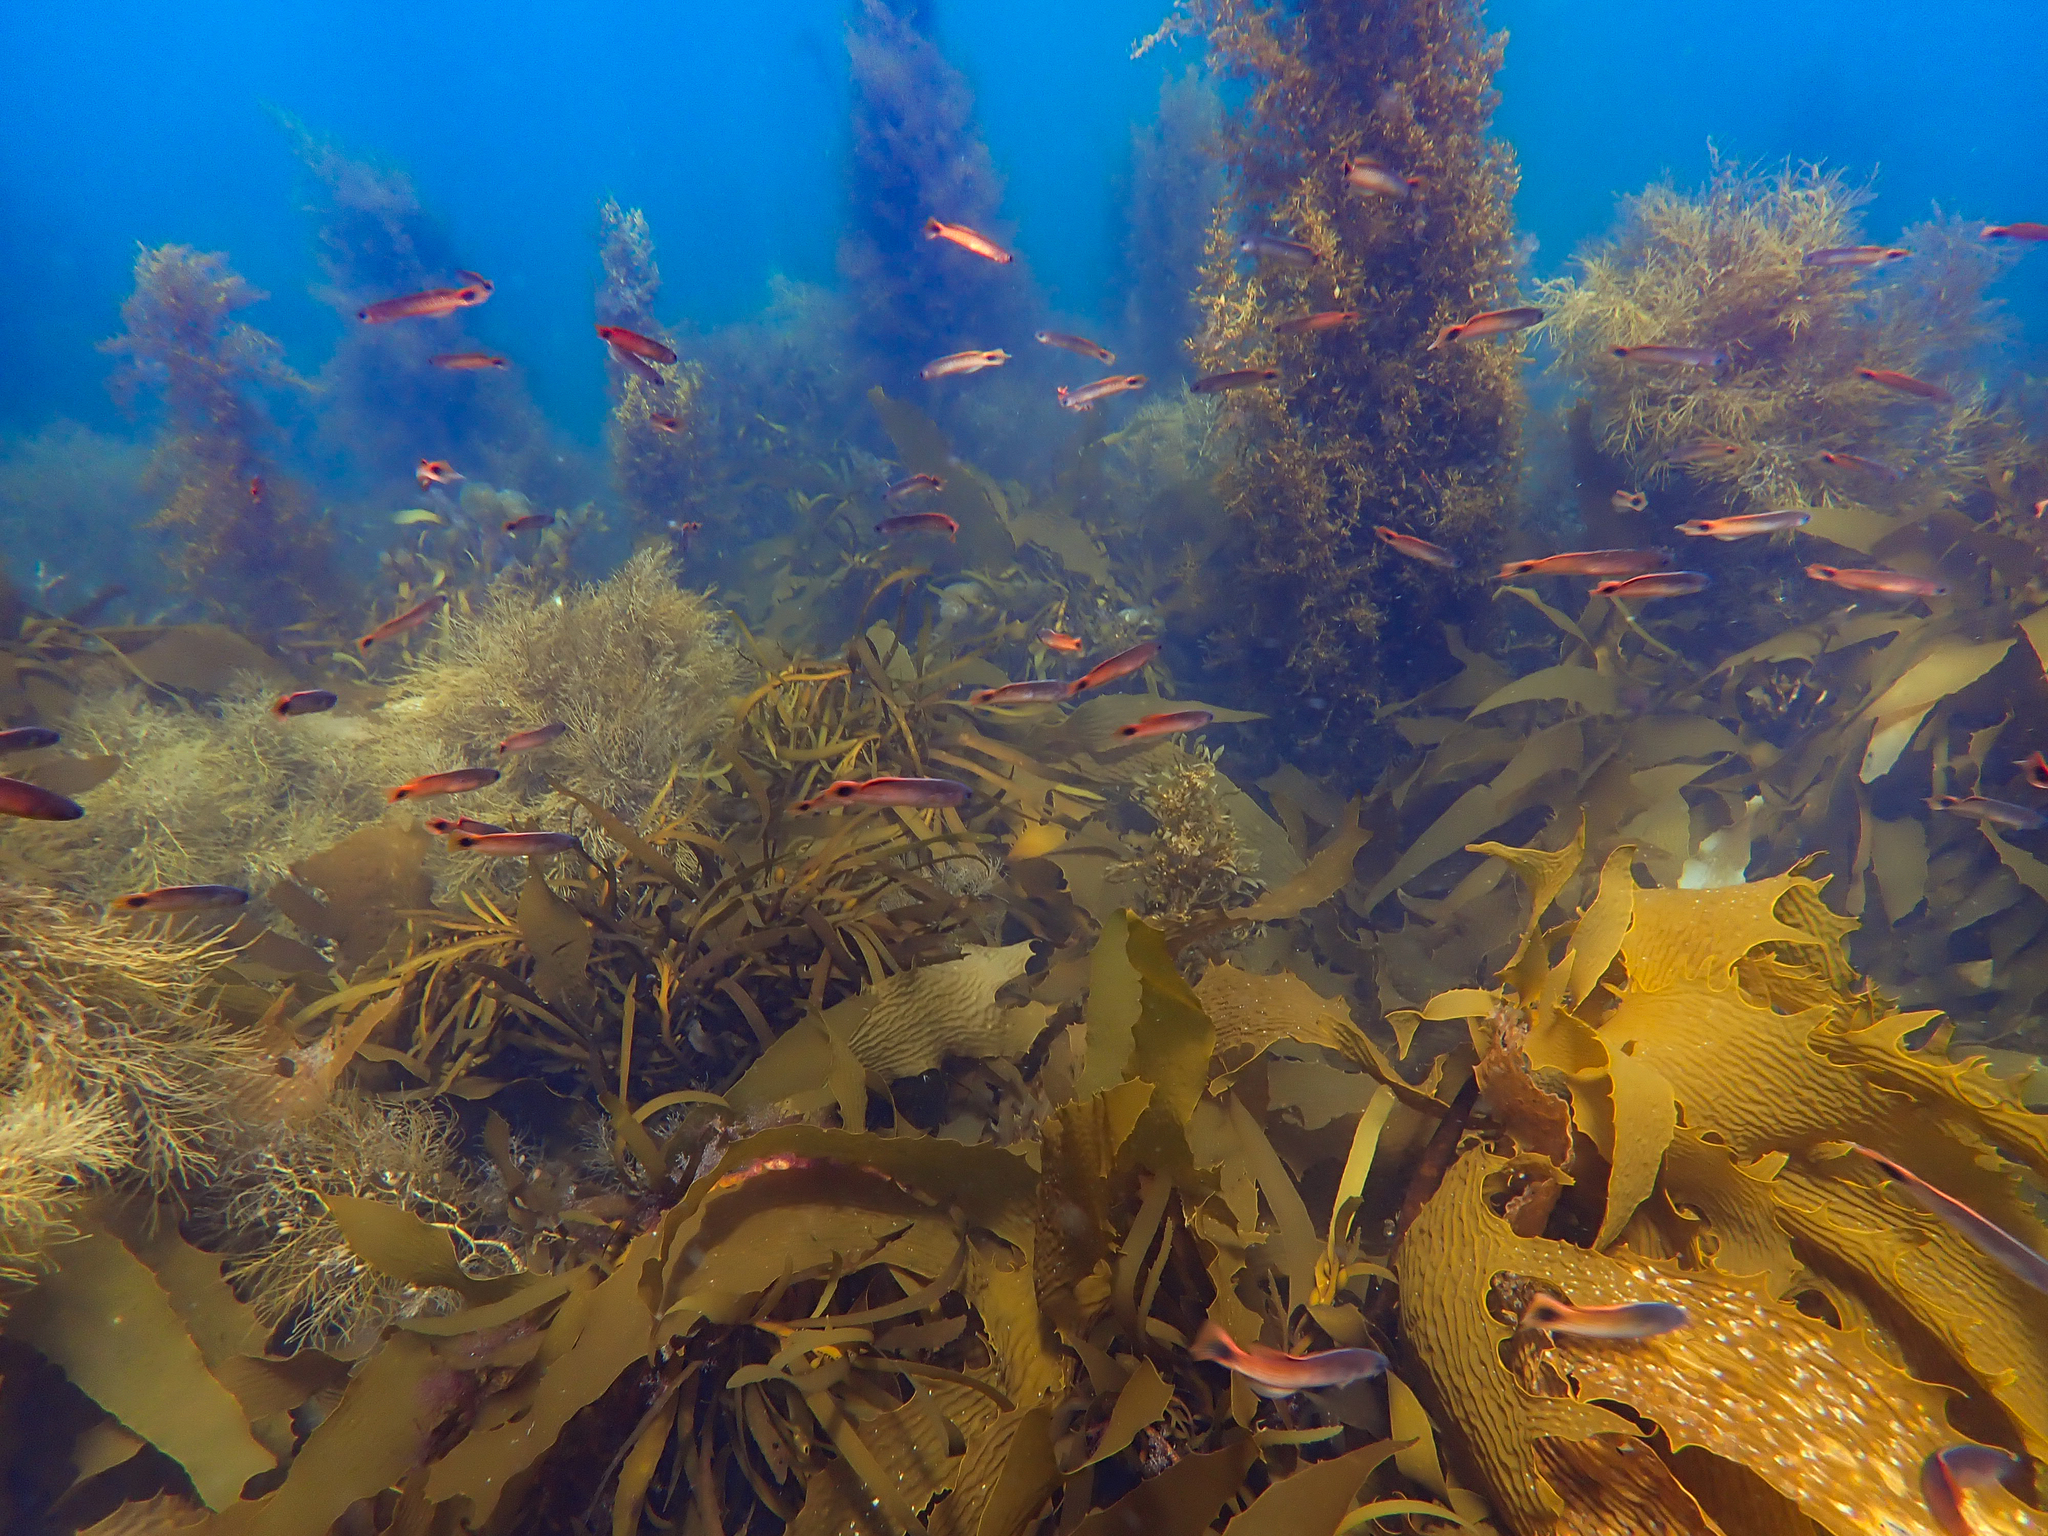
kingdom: Animalia
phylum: Chordata
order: Perciformes
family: Plesiopidae
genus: Trachinops
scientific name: Trachinops caudimaculatus
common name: Blotched-tailed trachinops
